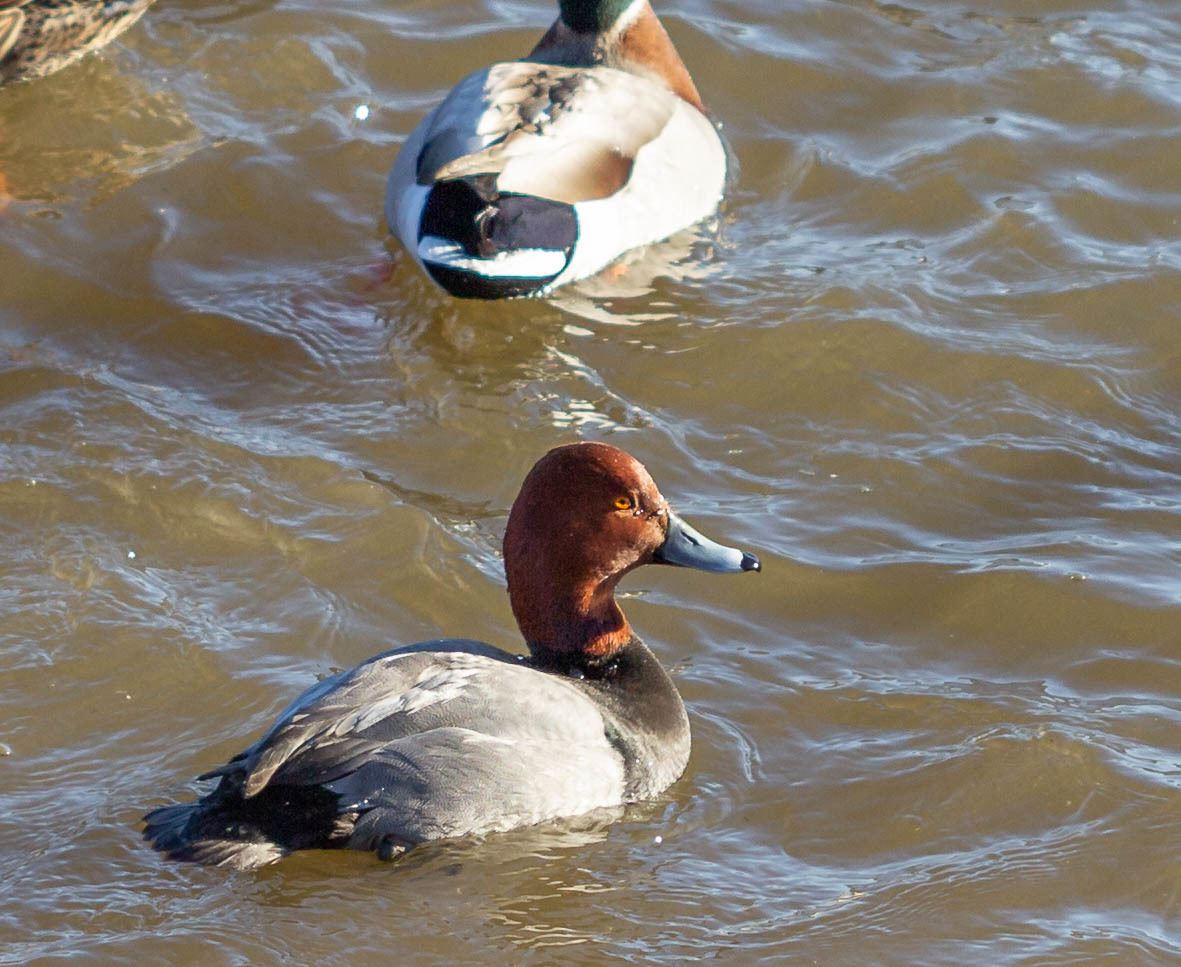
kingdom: Animalia
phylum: Chordata
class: Aves
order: Anseriformes
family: Anatidae
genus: Aythya
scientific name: Aythya americana
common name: Redhead
